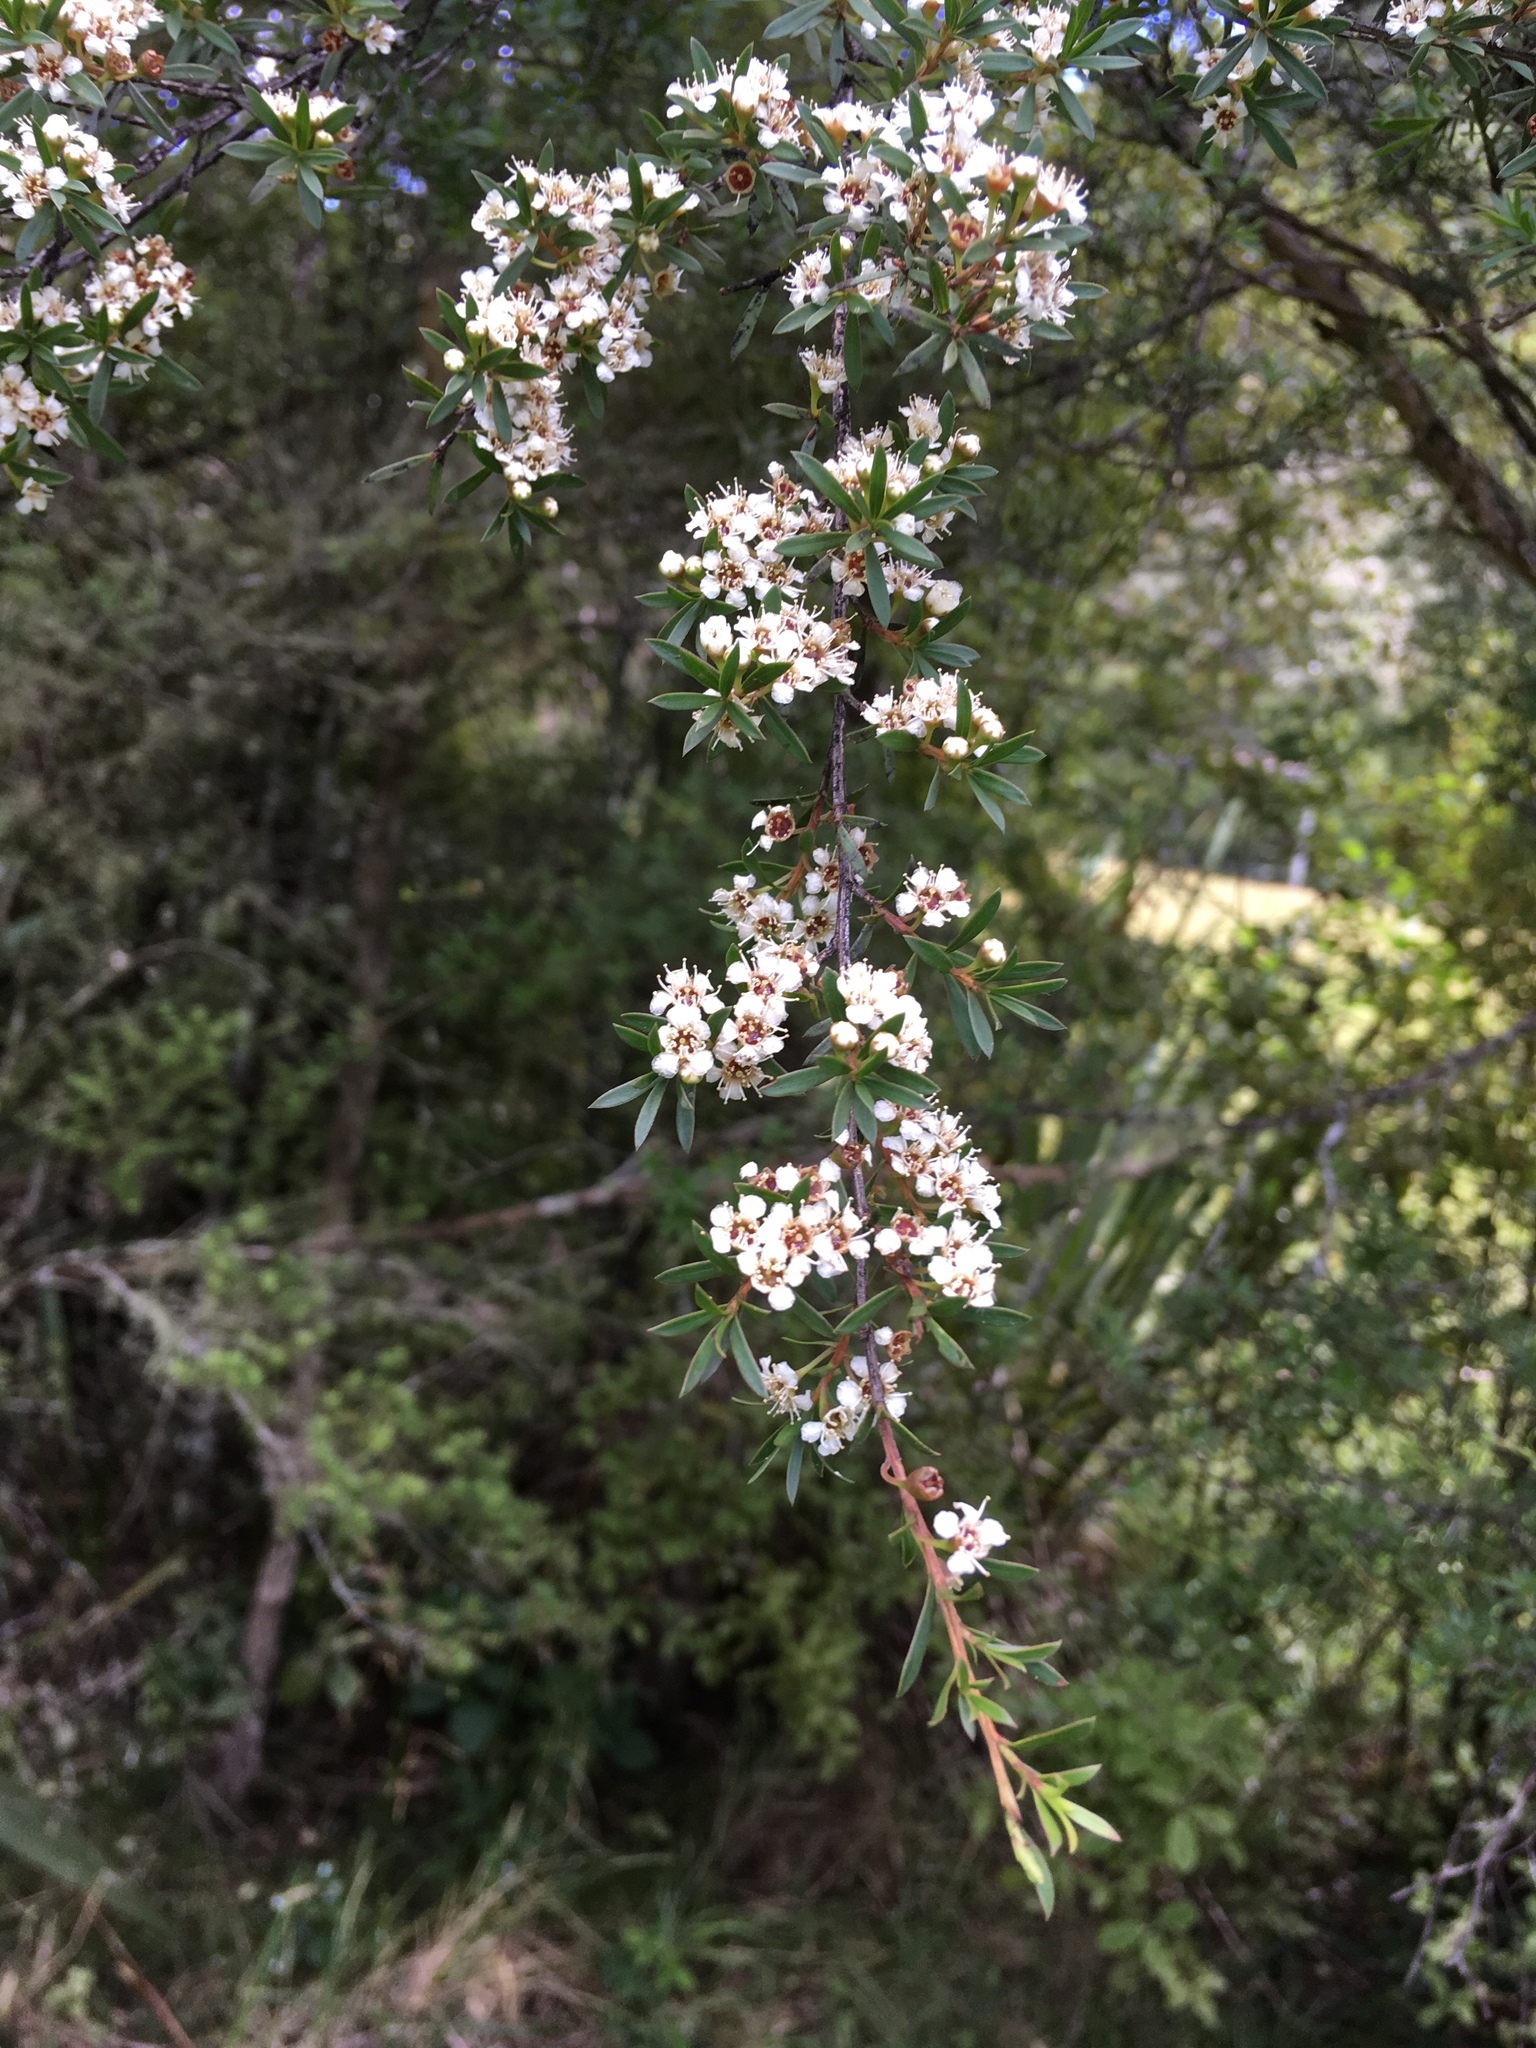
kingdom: Plantae
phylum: Tracheophyta
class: Magnoliopsida
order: Myrtales
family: Myrtaceae
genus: Kunzea
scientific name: Kunzea robusta
